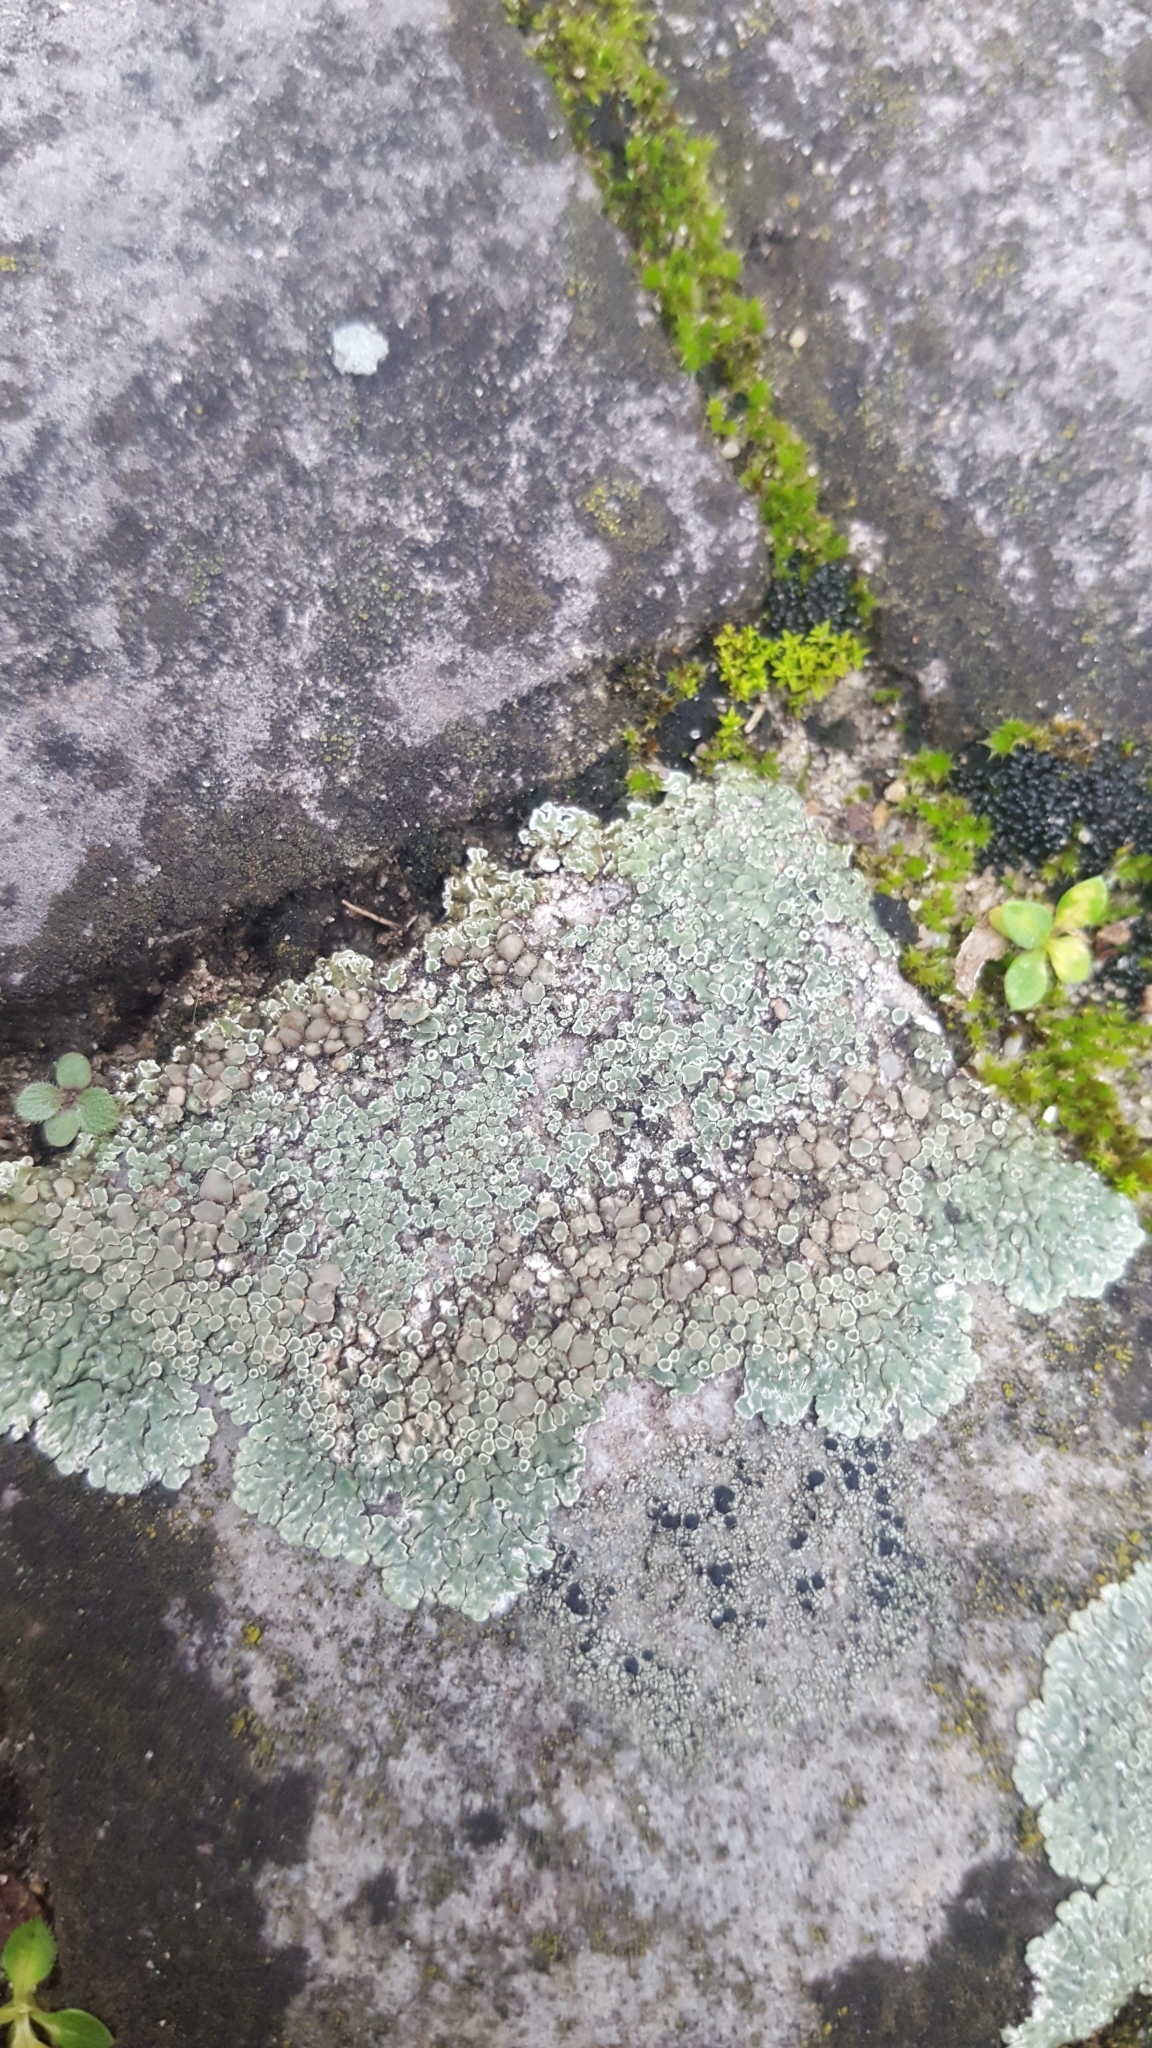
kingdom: Fungi
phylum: Ascomycota
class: Lecanoromycetes
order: Lecanorales
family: Lecanoraceae
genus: Protoparmeliopsis
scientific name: Protoparmeliopsis muralis
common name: Stonewall rim lichen
